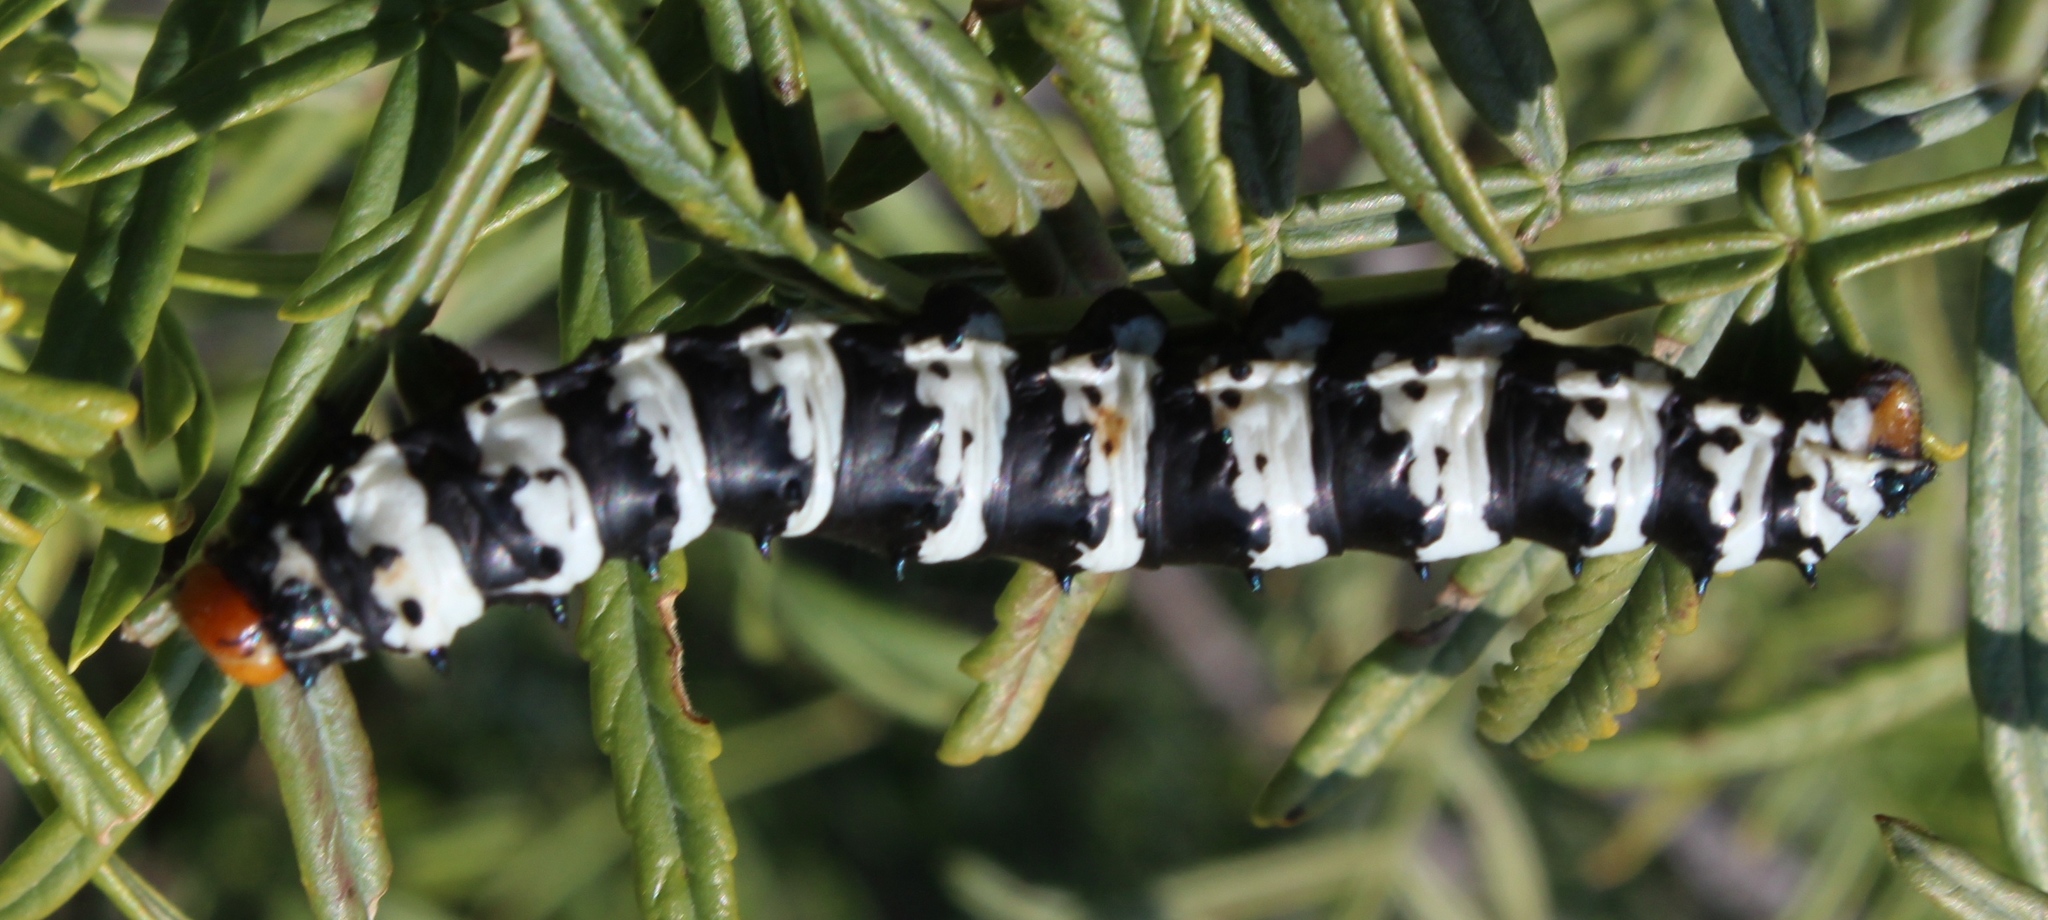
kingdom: Animalia
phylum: Arthropoda
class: Insecta
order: Lepidoptera
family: Saturniidae
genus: Eochroa
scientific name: Eochroa trimeni
